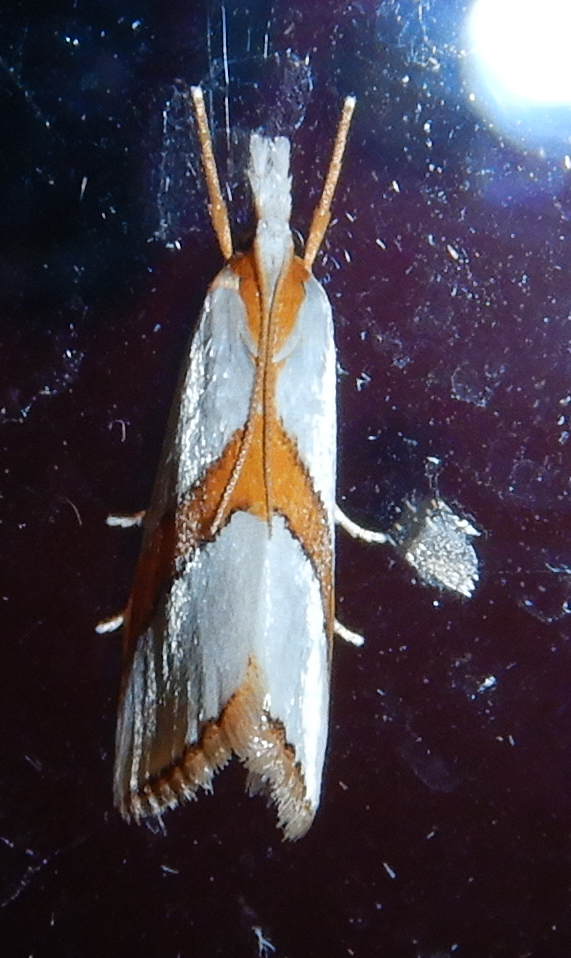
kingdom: Animalia
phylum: Arthropoda
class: Insecta
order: Lepidoptera
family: Crambidae
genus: Vaxi
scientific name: Vaxi critica
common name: Straight-lined vaxi moth
